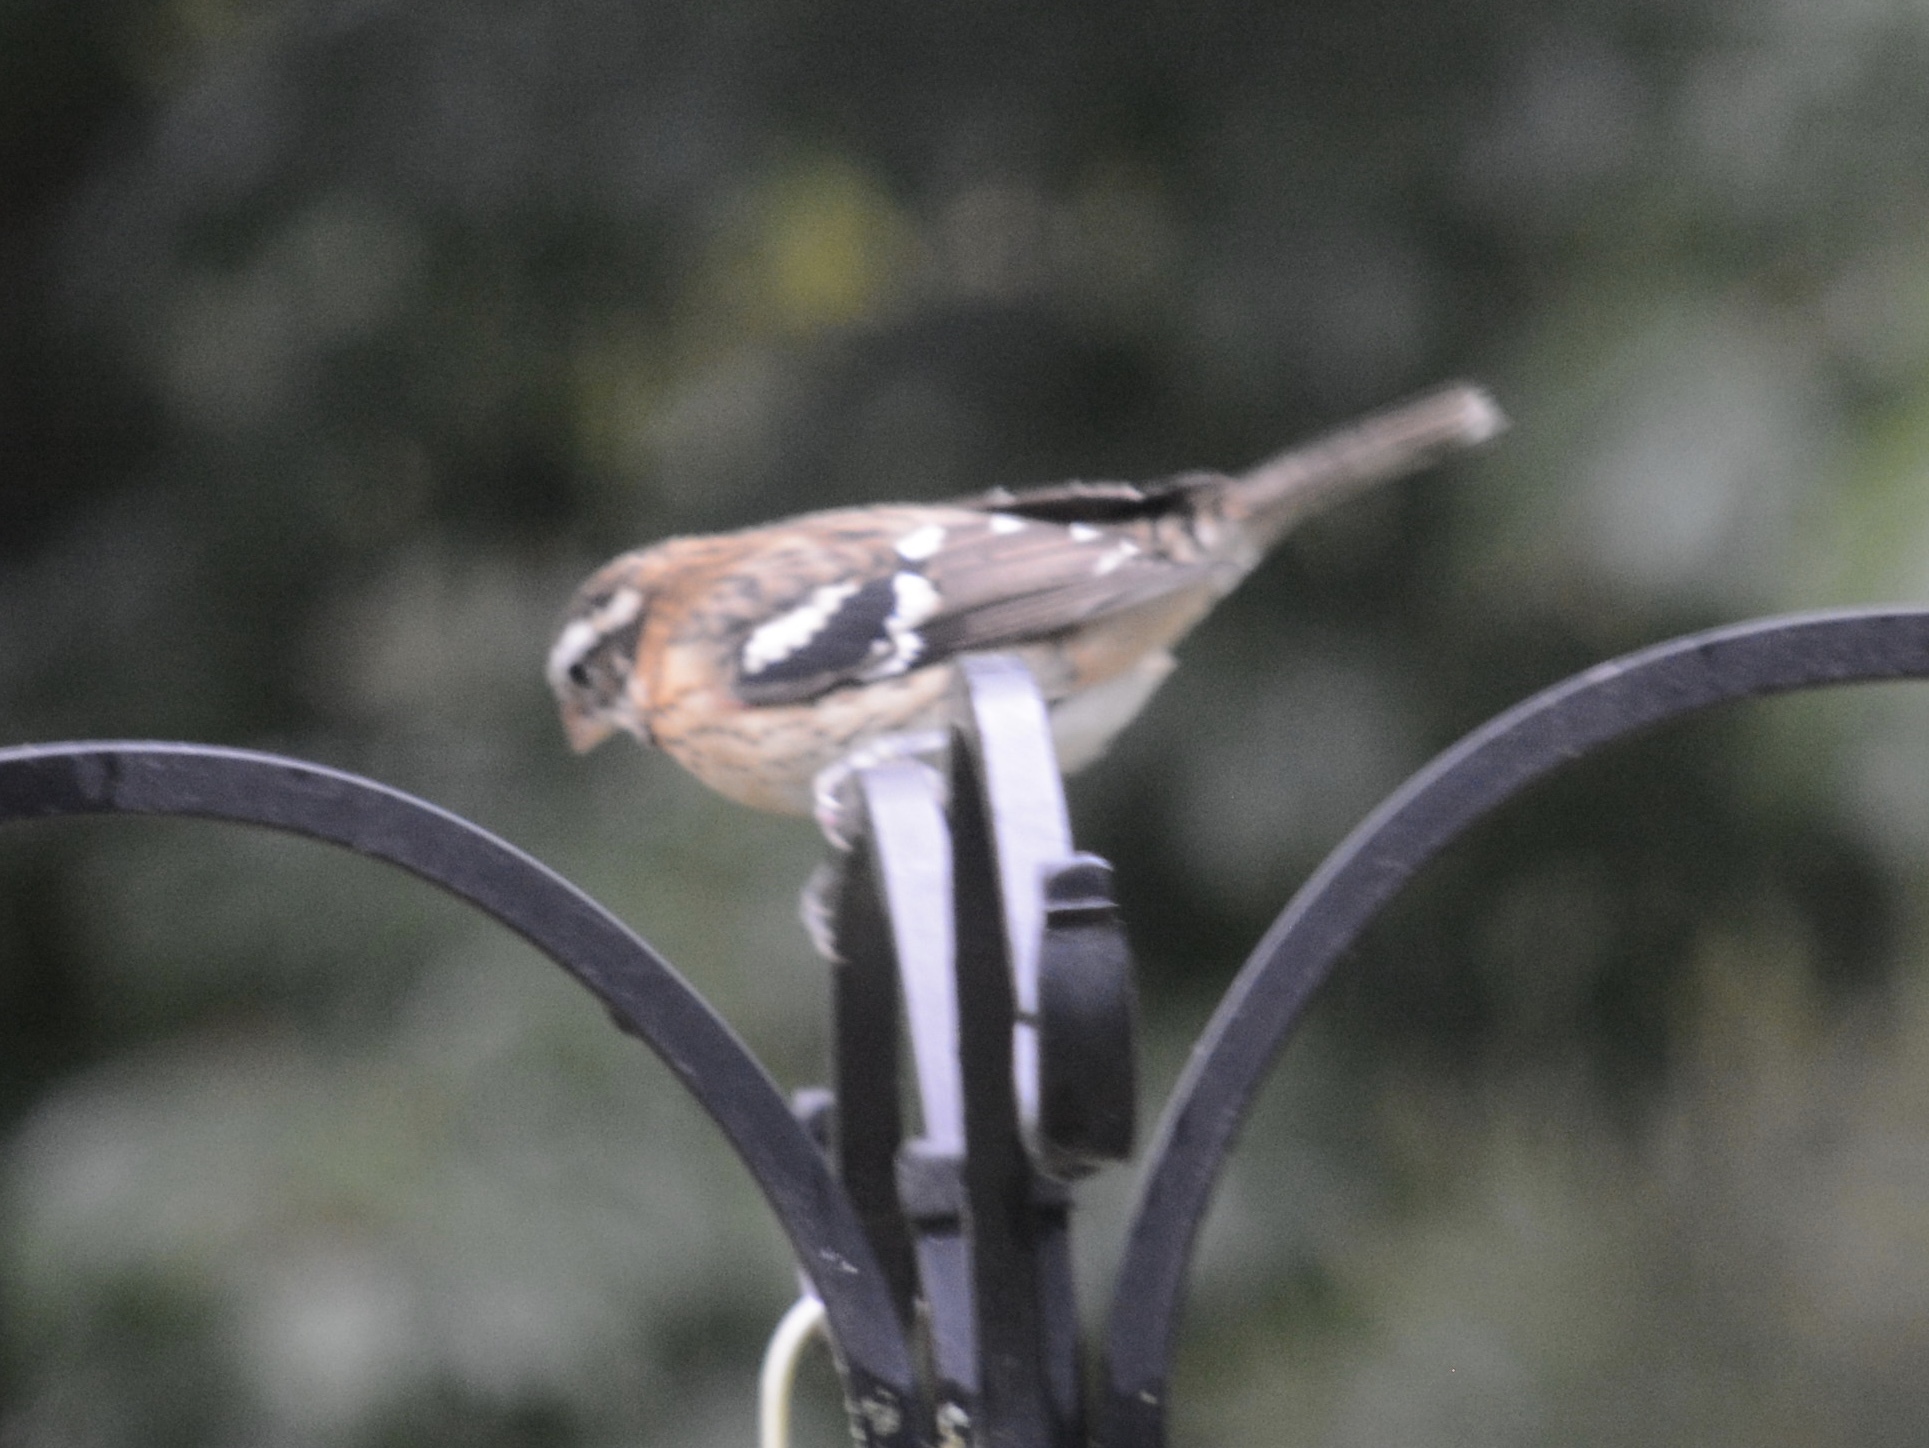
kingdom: Animalia
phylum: Chordata
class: Aves
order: Passeriformes
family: Cardinalidae
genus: Pheucticus
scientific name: Pheucticus ludovicianus
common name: Rose-breasted grosbeak
